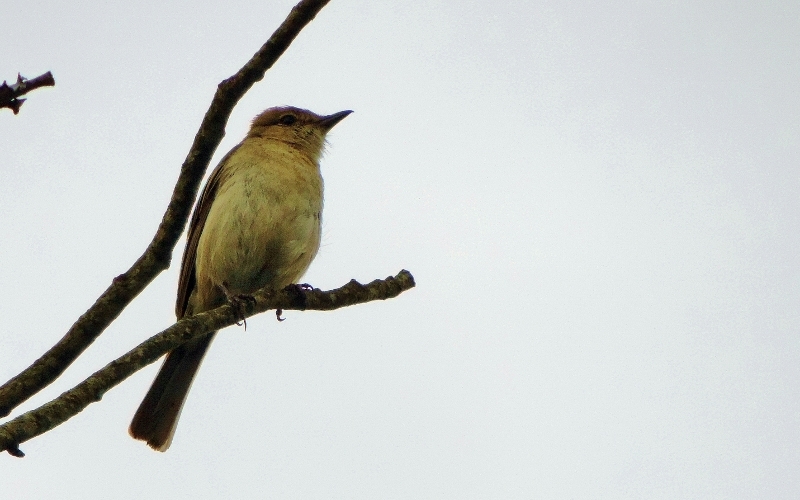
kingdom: Animalia
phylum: Chordata
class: Aves
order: Passeriformes
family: Muscicapidae
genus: Bradornis
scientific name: Bradornis pallidus
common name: Pale flycatcher
